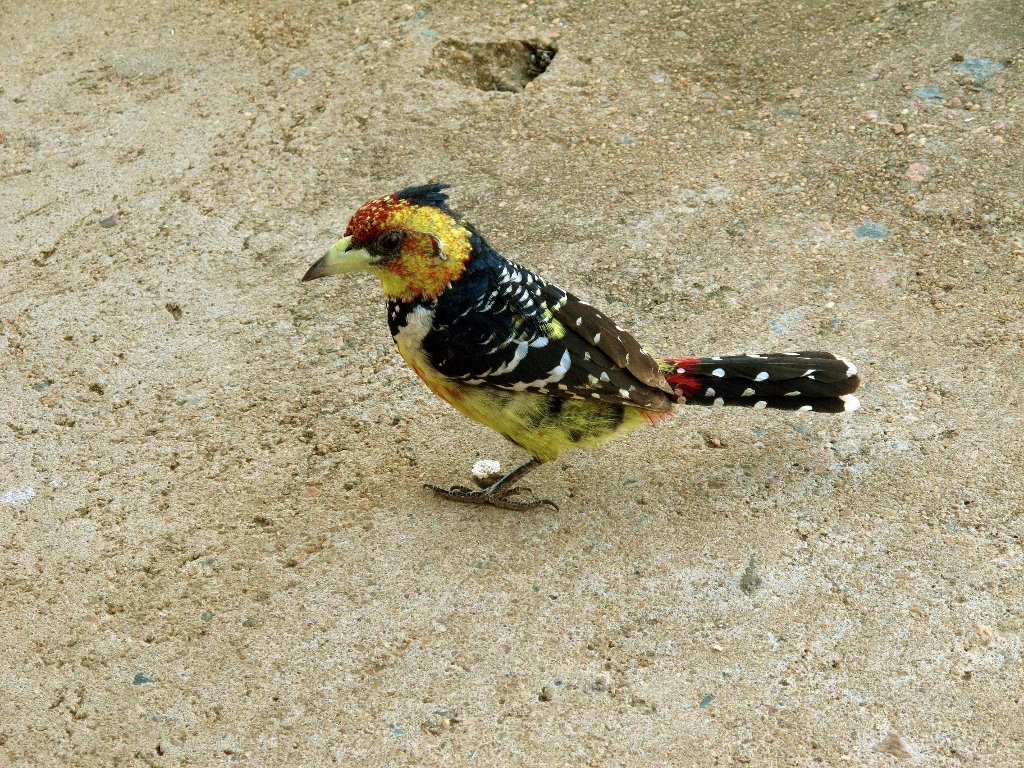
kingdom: Animalia
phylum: Chordata
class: Aves
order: Piciformes
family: Lybiidae
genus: Trachyphonus
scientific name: Trachyphonus vaillantii
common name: Crested barbet
